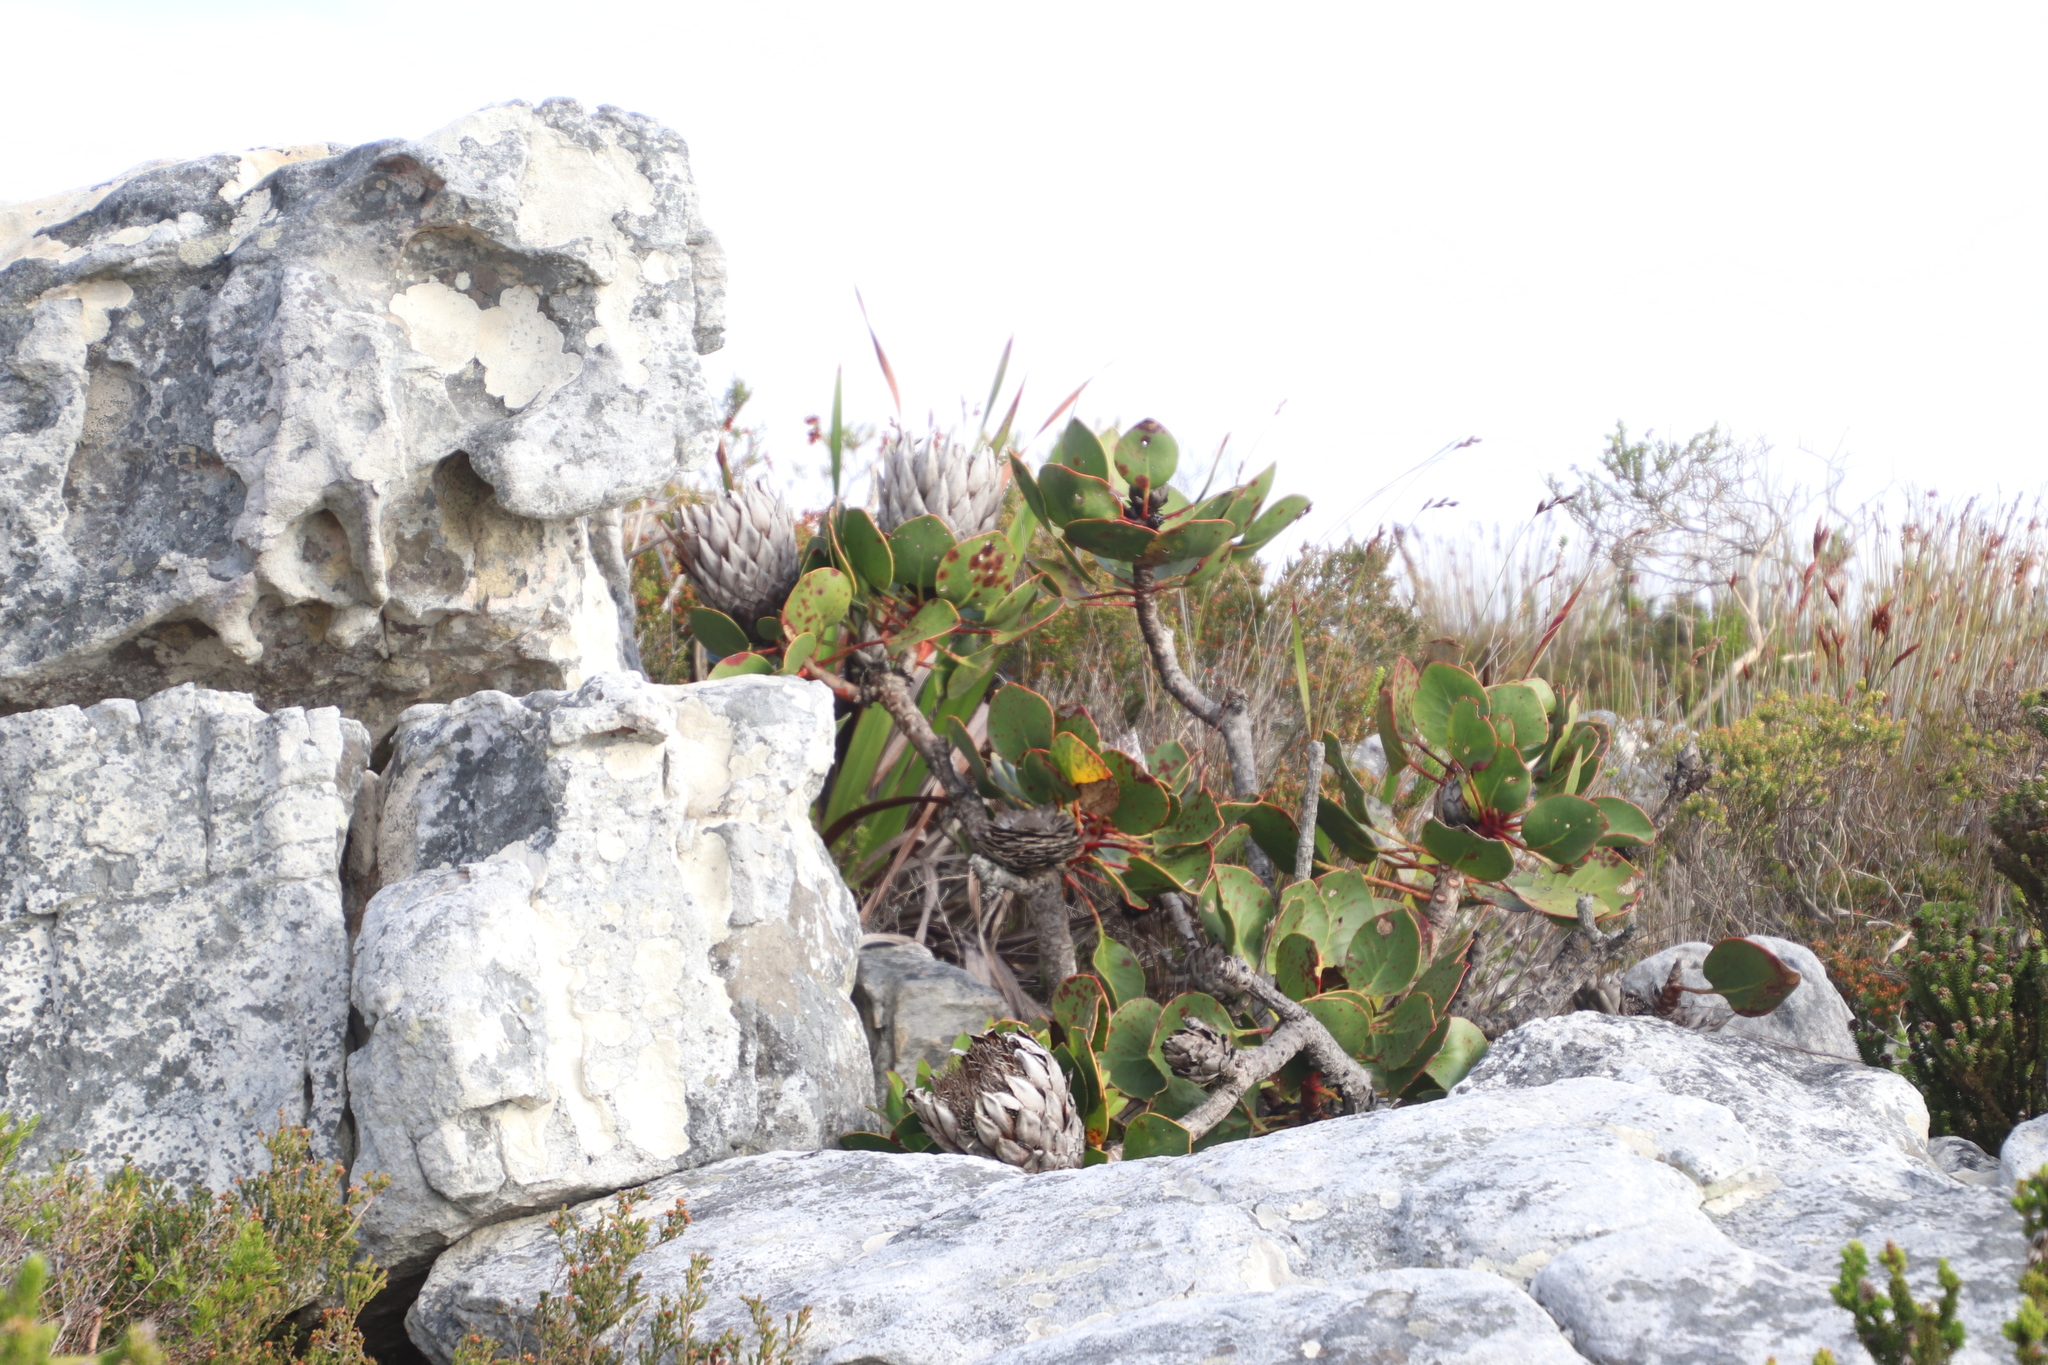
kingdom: Plantae
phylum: Tracheophyta
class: Magnoliopsida
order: Proteales
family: Proteaceae
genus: Protea
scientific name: Protea cynaroides
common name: King protea
